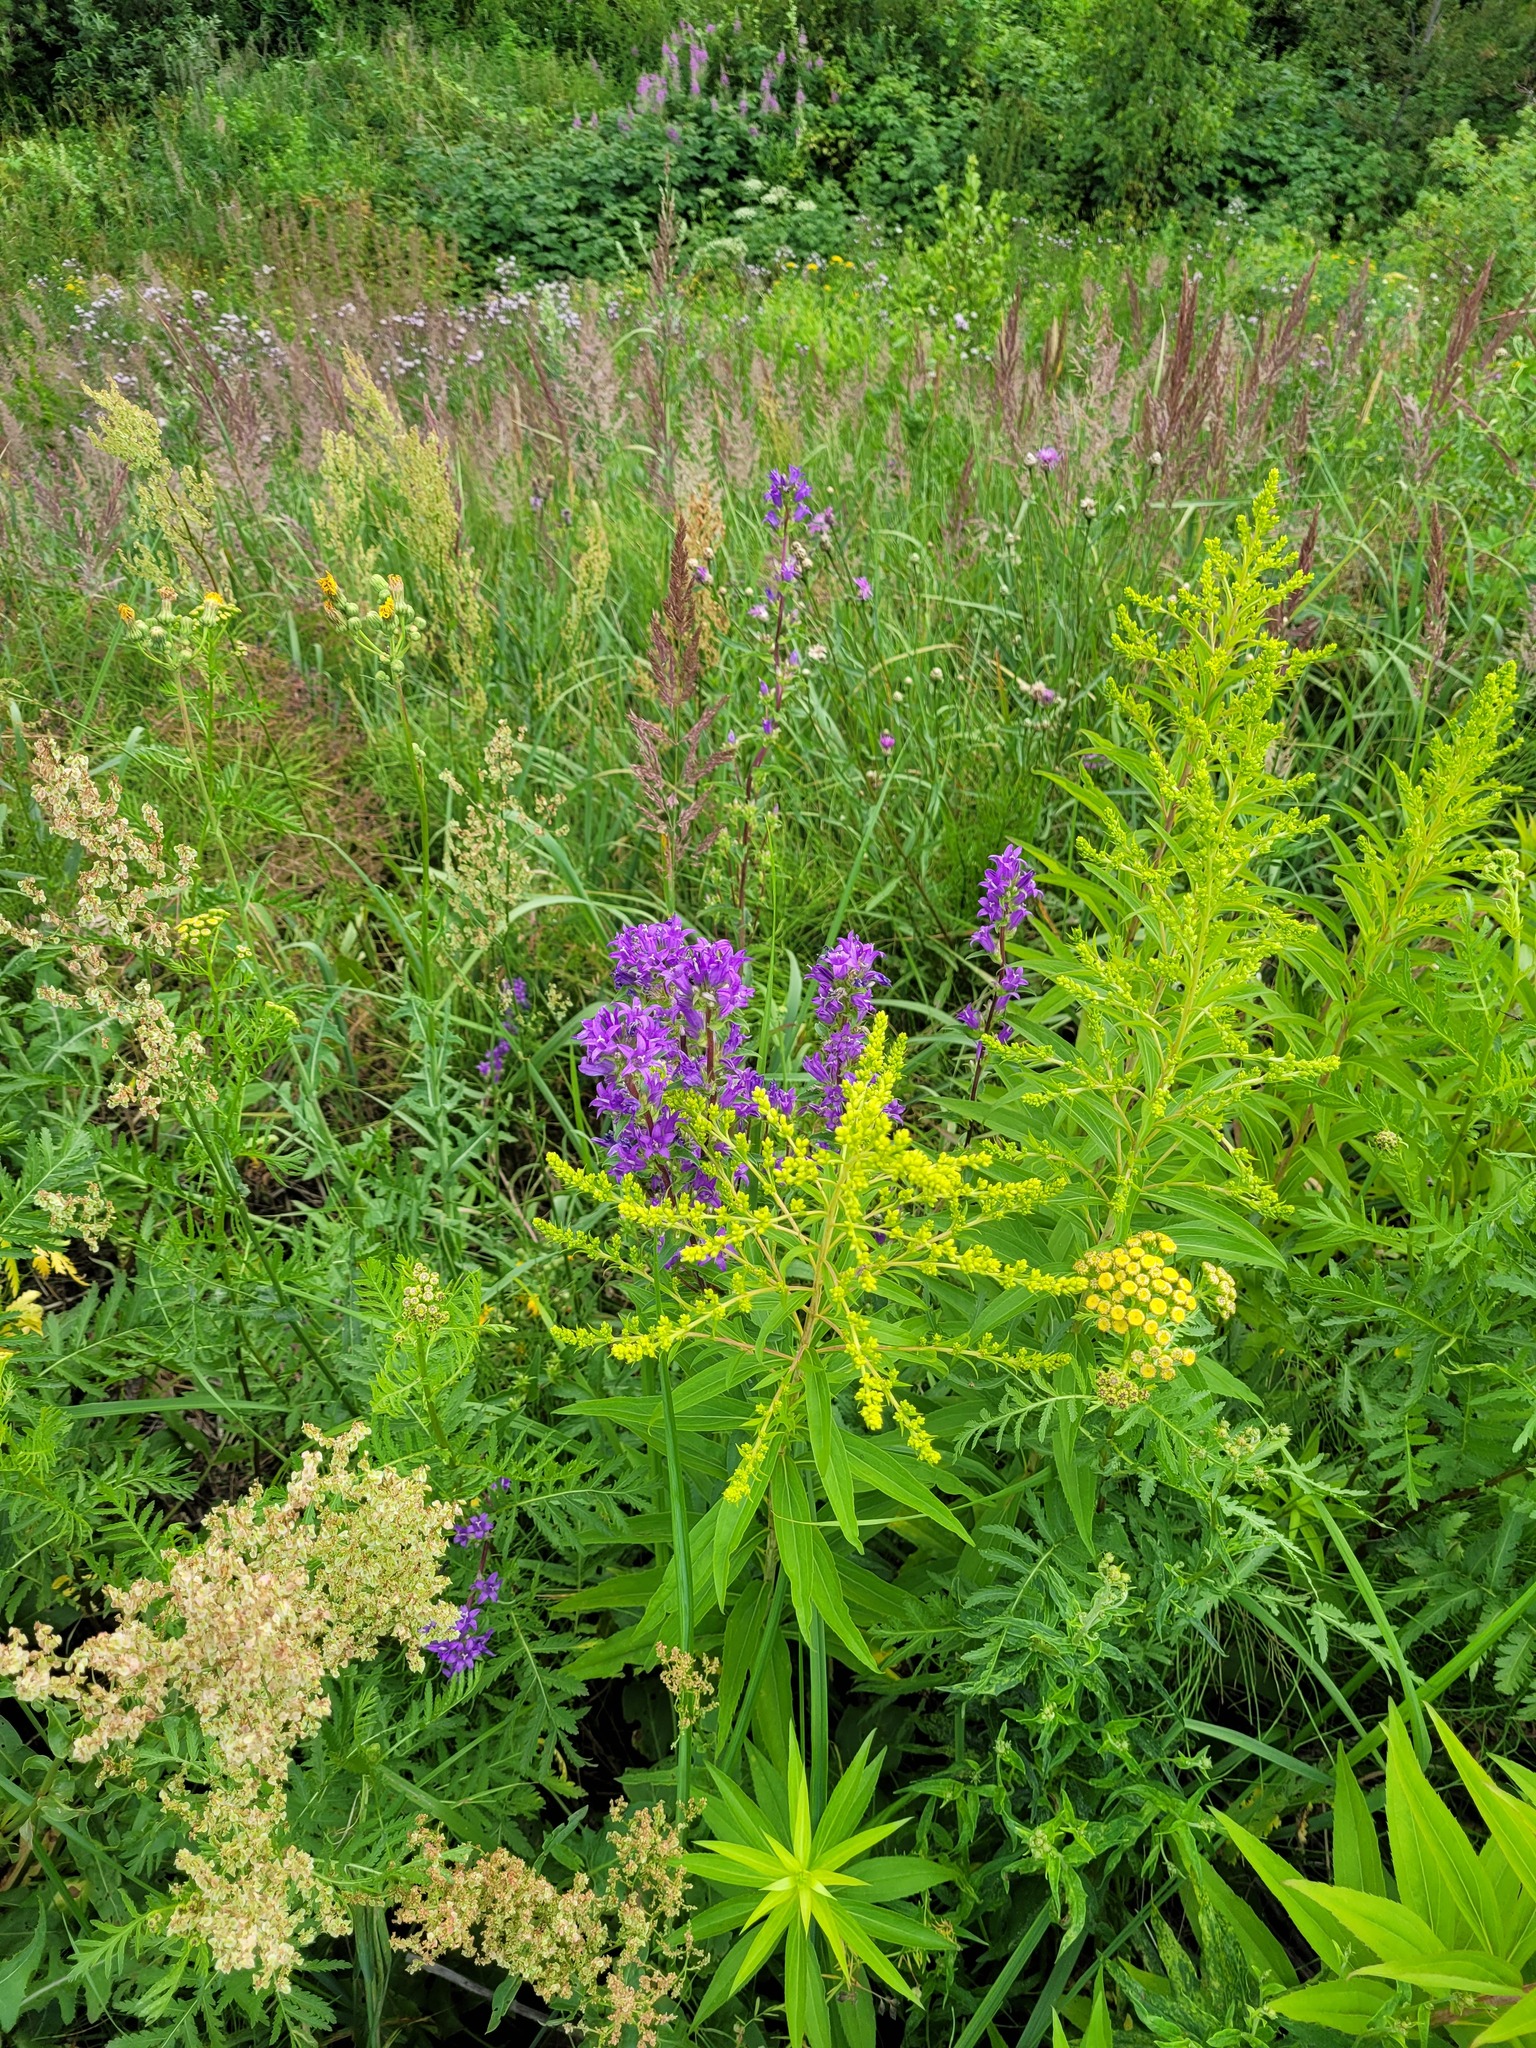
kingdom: Plantae
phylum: Tracheophyta
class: Magnoliopsida
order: Asterales
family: Campanulaceae
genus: Campanula
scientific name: Campanula glomerata
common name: Clustered bellflower
